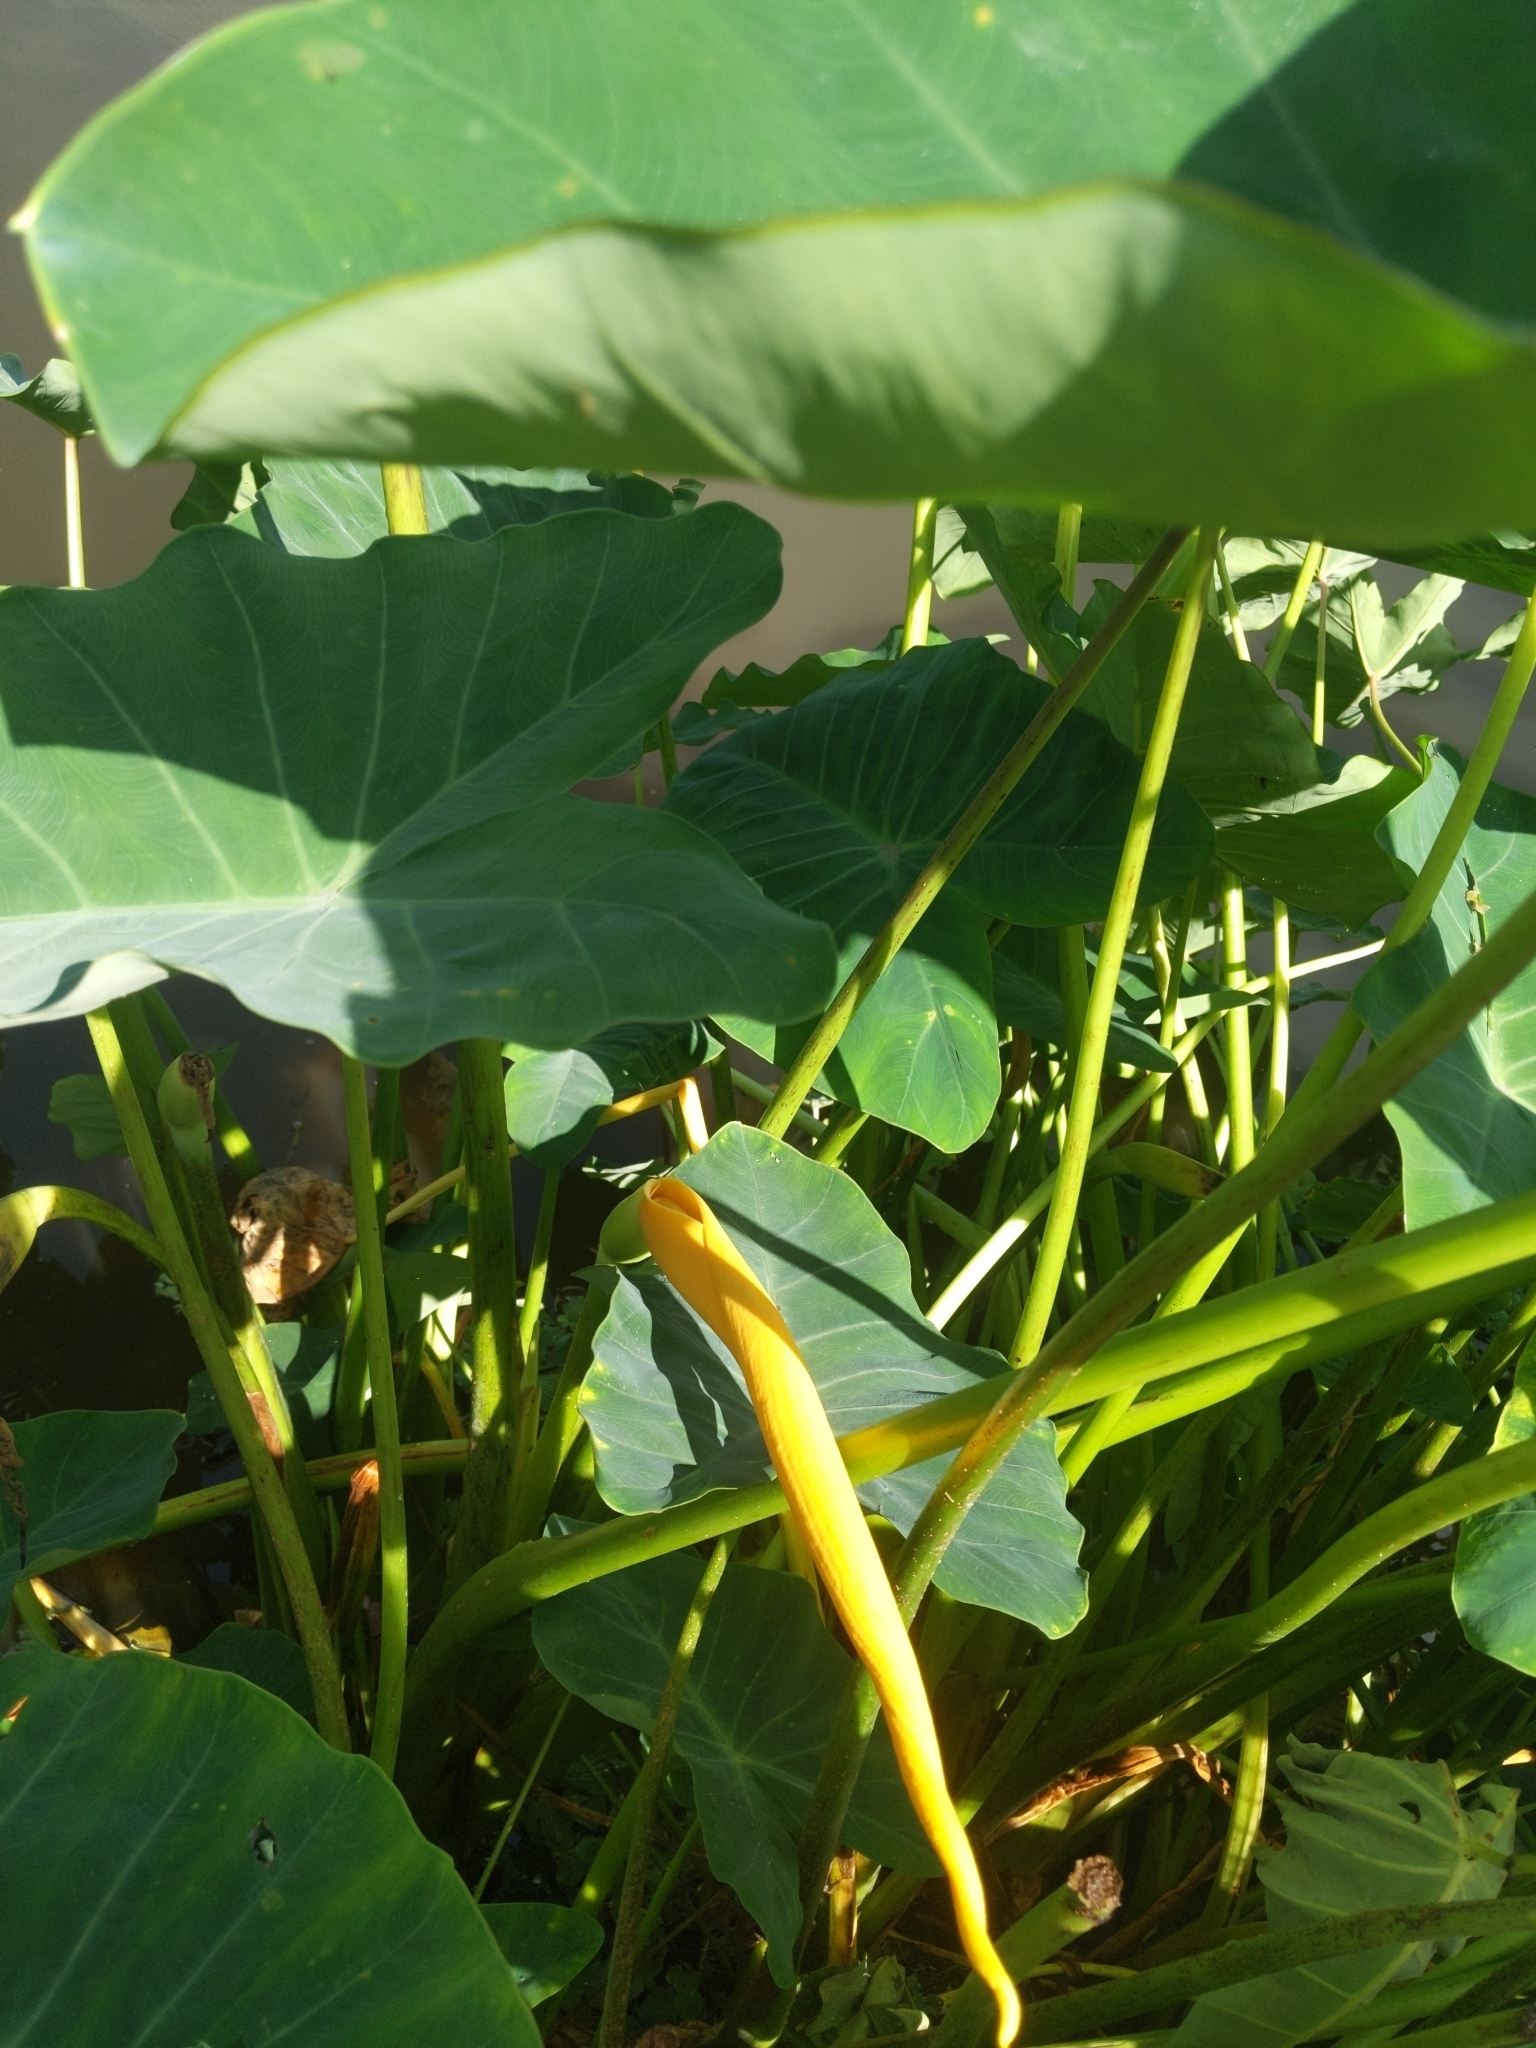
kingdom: Plantae
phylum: Tracheophyta
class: Liliopsida
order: Alismatales
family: Araceae
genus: Colocasia
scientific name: Colocasia esculenta
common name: Taro
